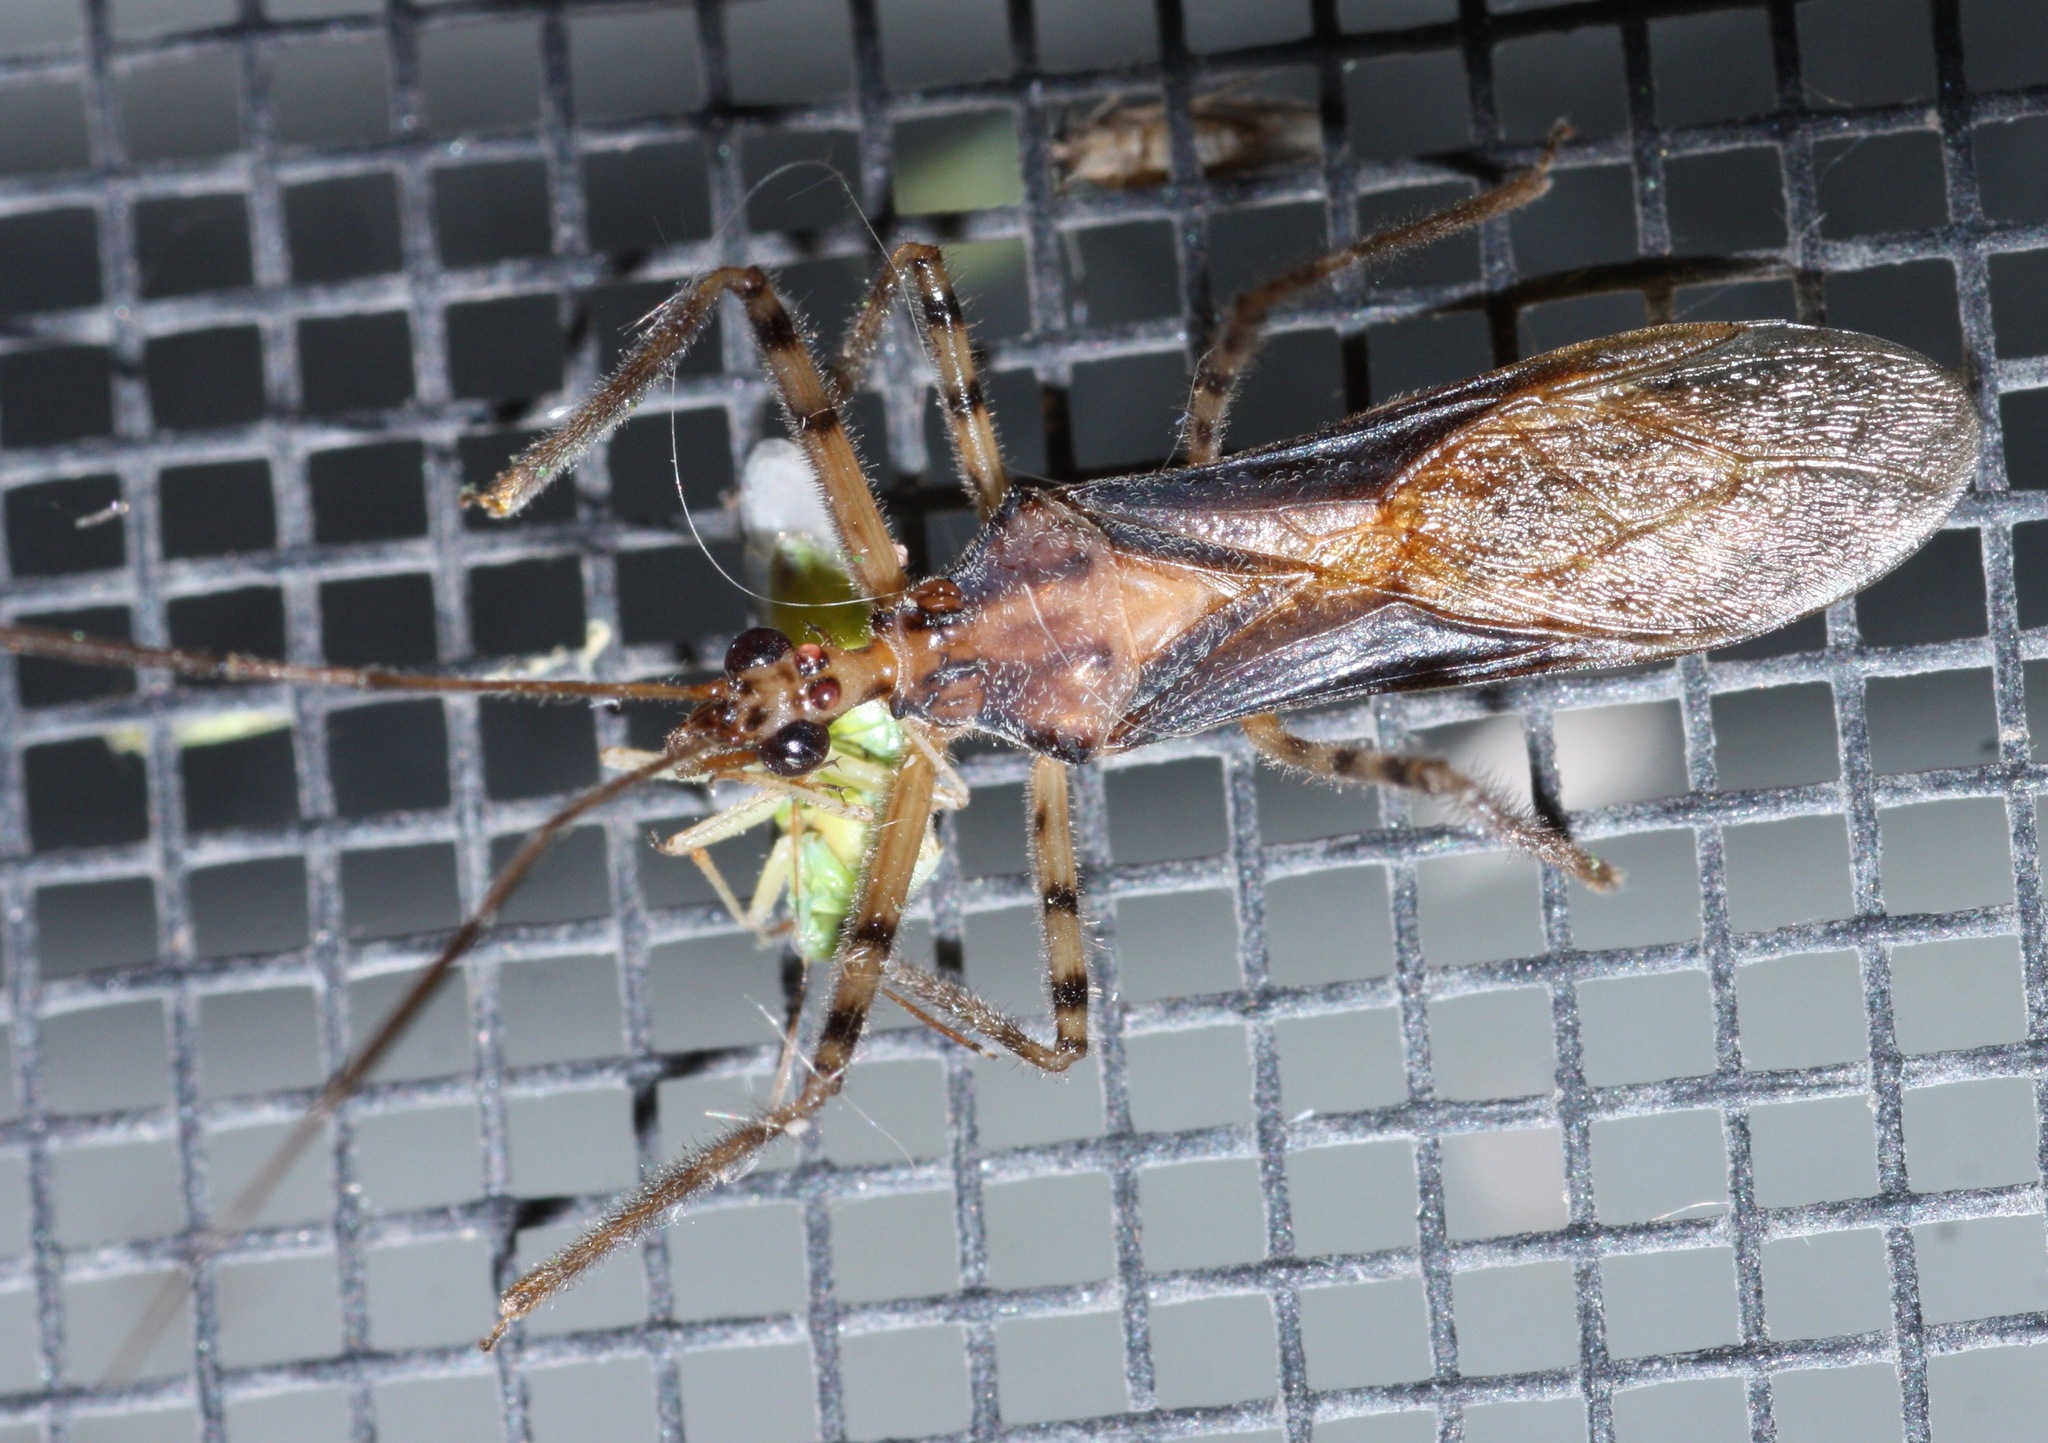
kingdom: Animalia
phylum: Arthropoda
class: Insecta
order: Hemiptera
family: Reduviidae
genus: Castolus
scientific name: Castolus ferox
